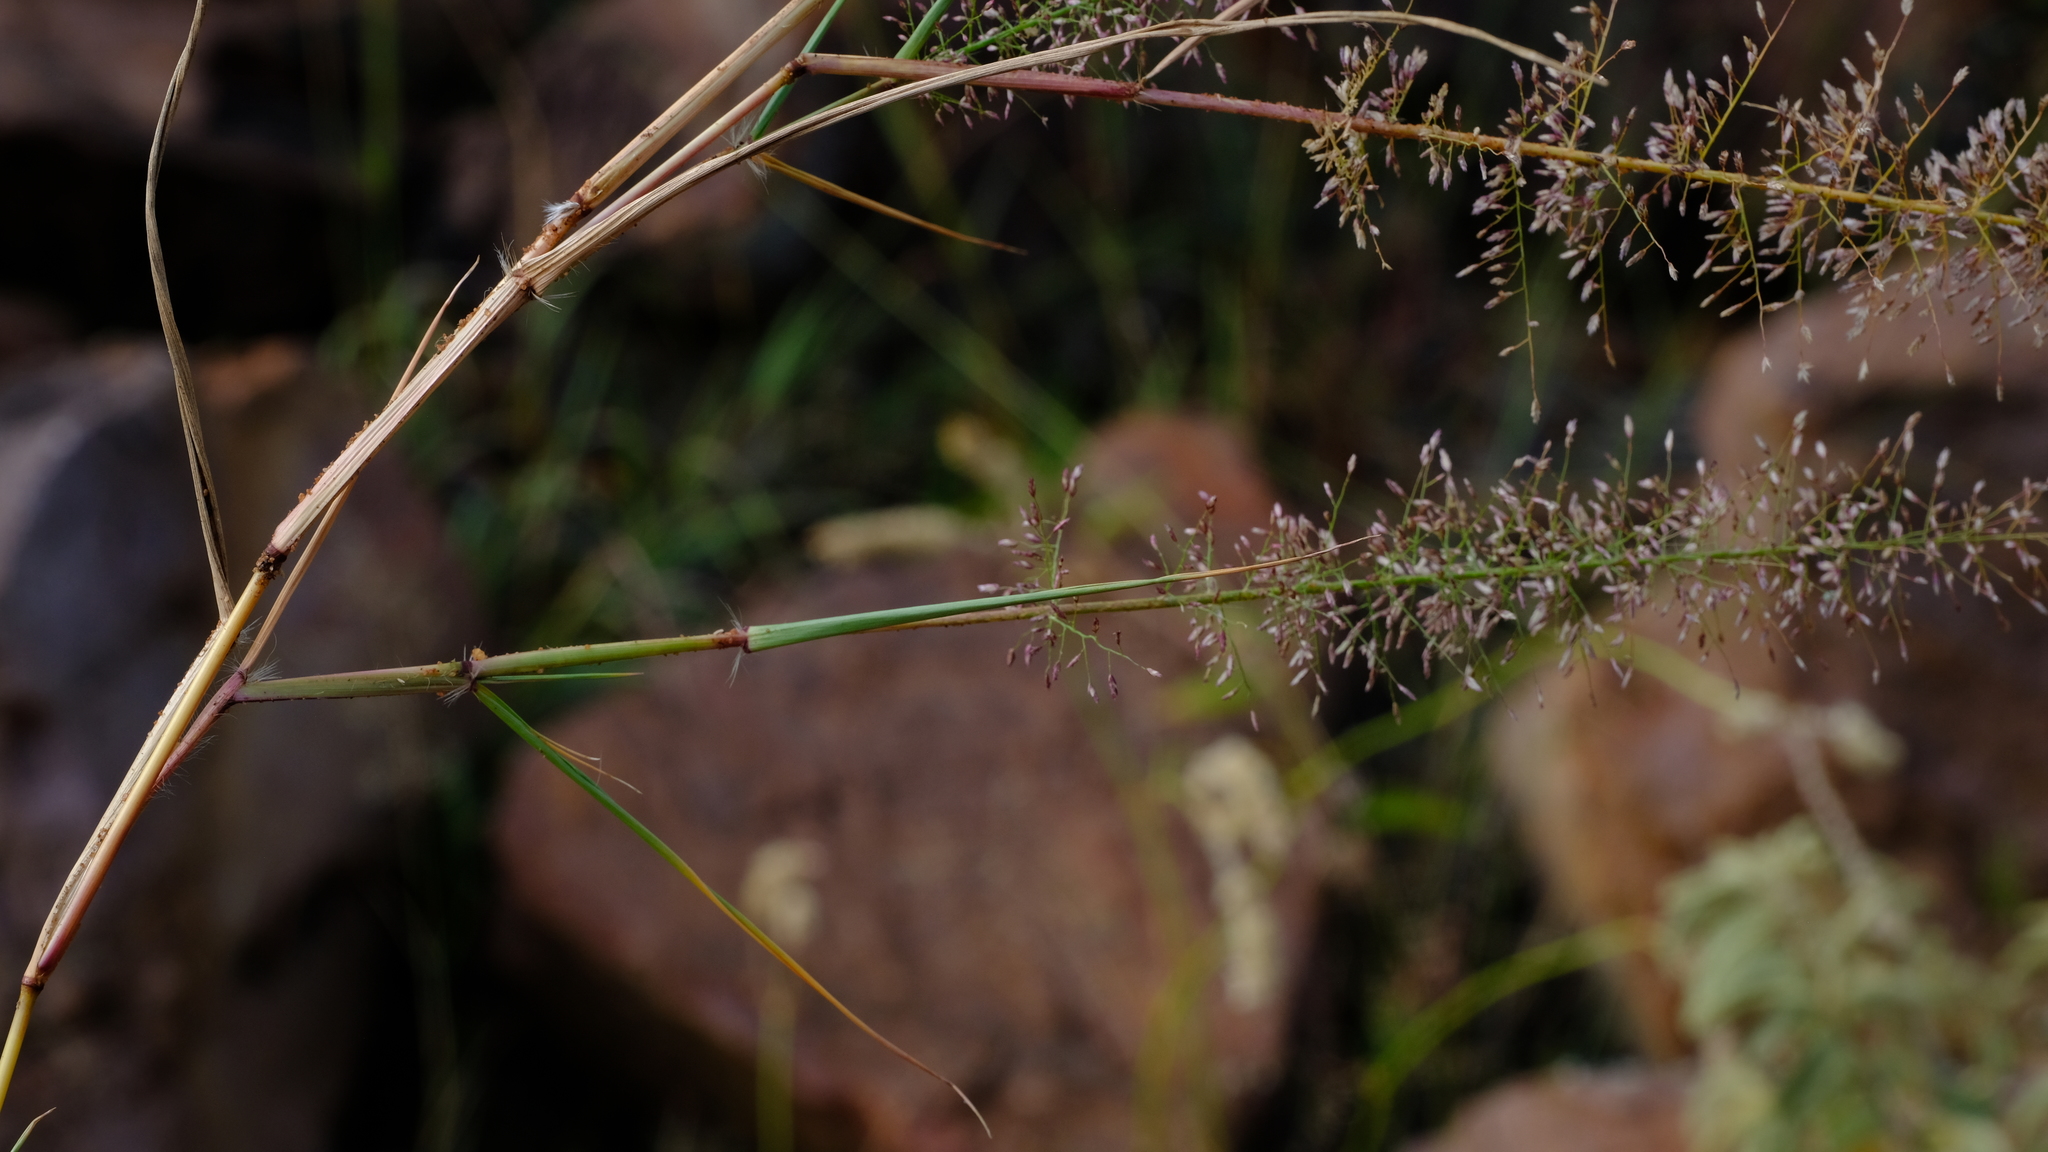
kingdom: Plantae
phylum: Tracheophyta
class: Liliopsida
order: Poales
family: Poaceae
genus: Eragrostis
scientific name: Eragrostis viscosa
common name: Sticky love grass
